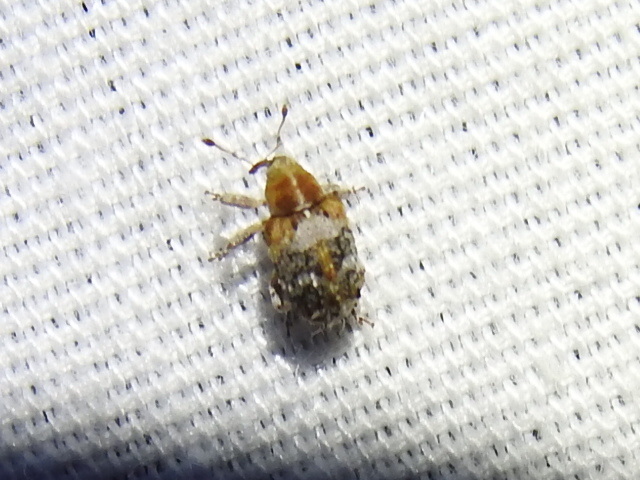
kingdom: Animalia
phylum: Arthropoda
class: Insecta
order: Coleoptera
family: Curculionidae
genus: Ophryastes
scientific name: Ophryastes varius
